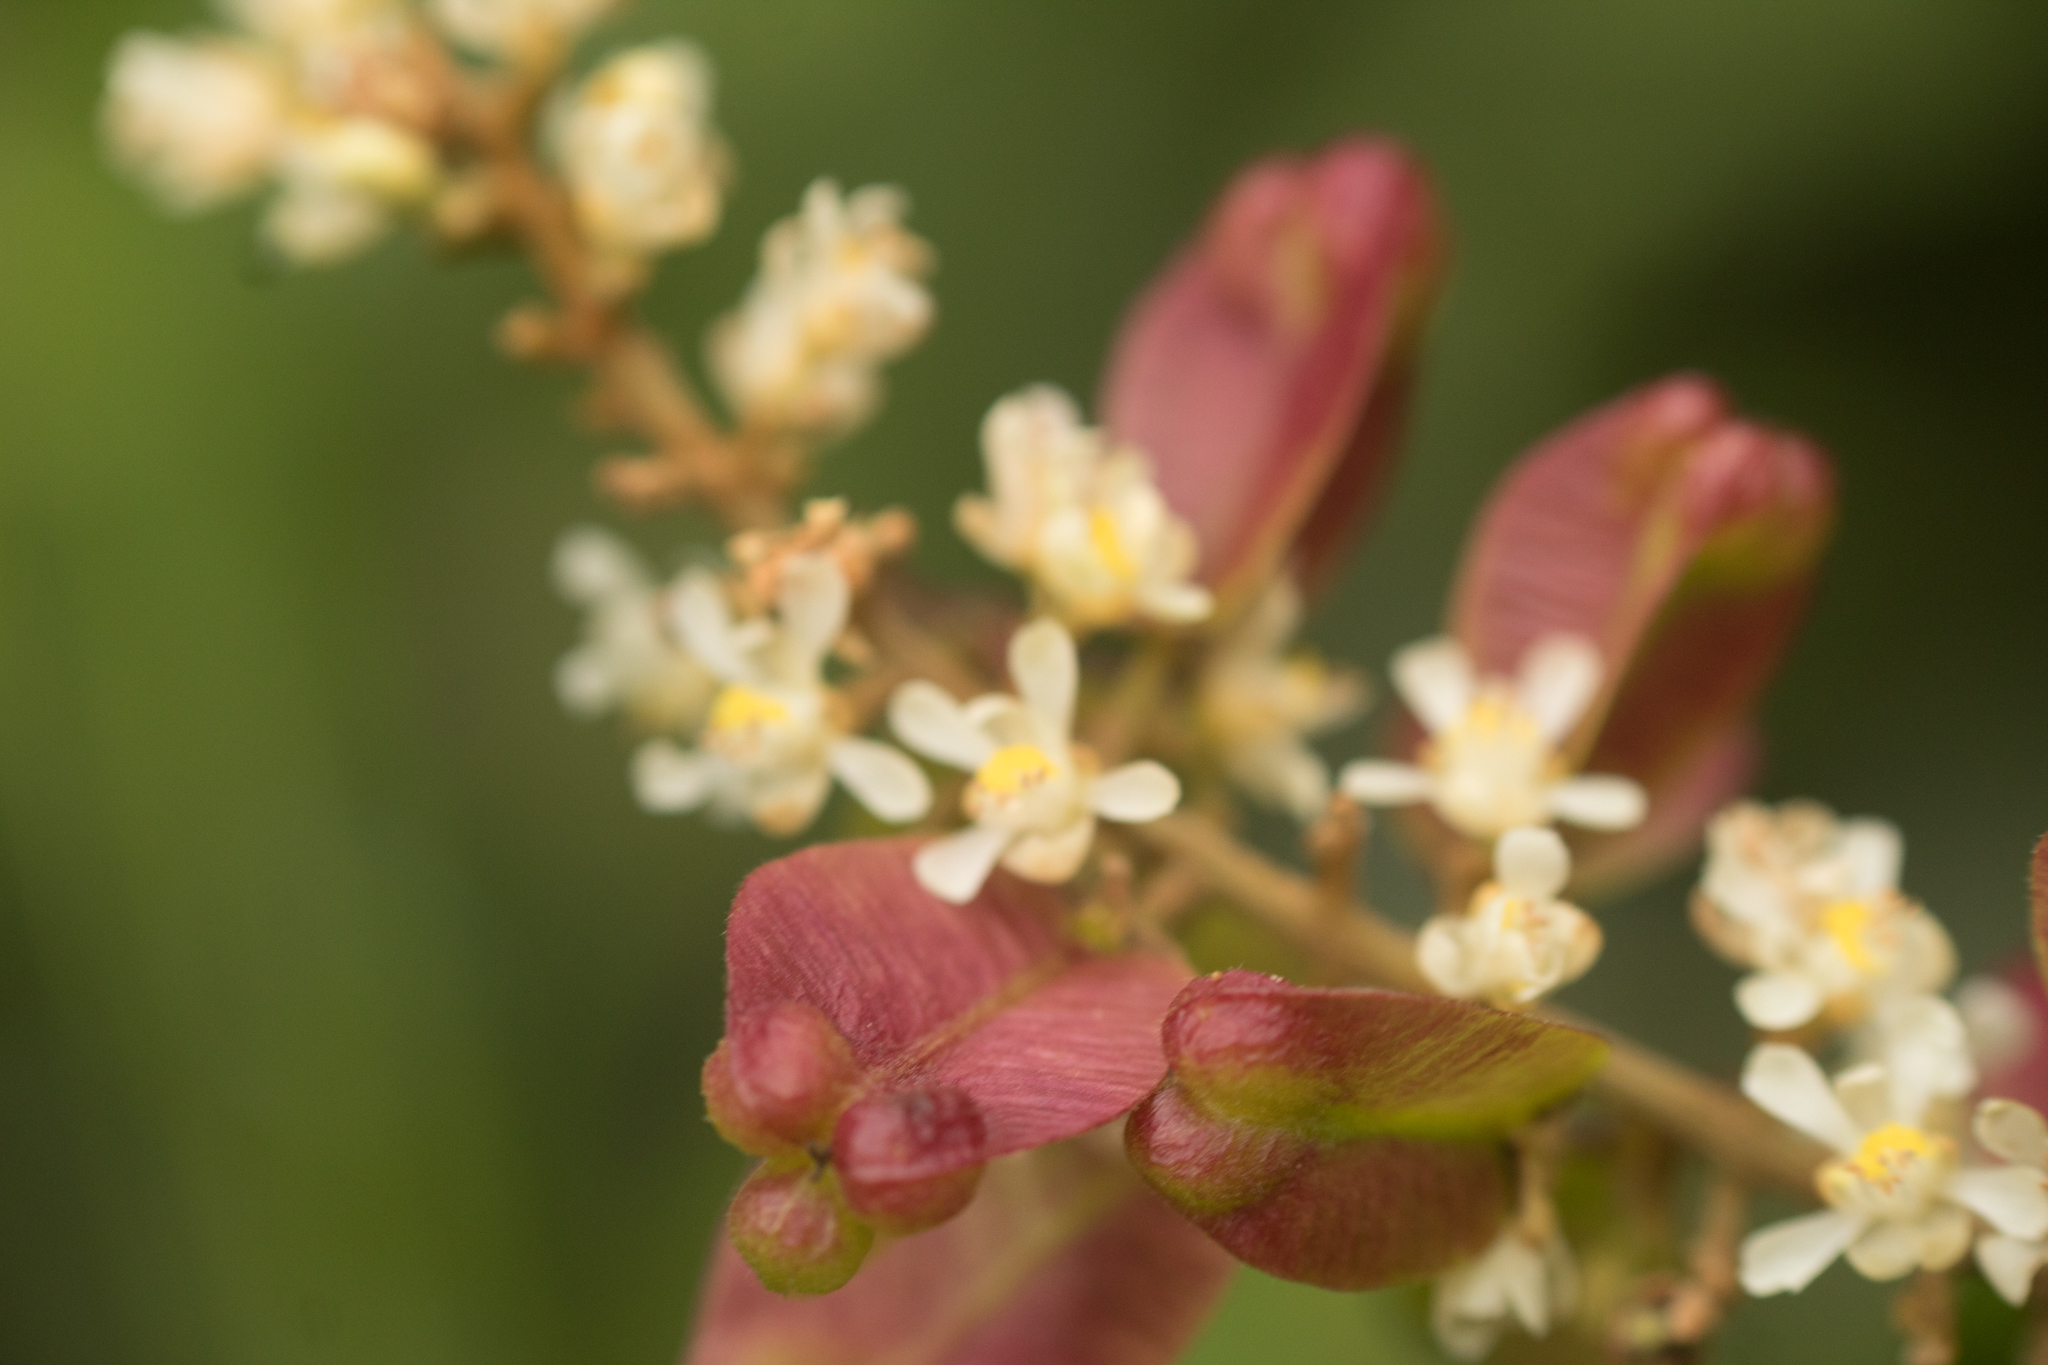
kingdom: Plantae
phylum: Tracheophyta
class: Magnoliopsida
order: Sapindales
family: Sapindaceae
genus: Serjania
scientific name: Serjania fuscifolia
